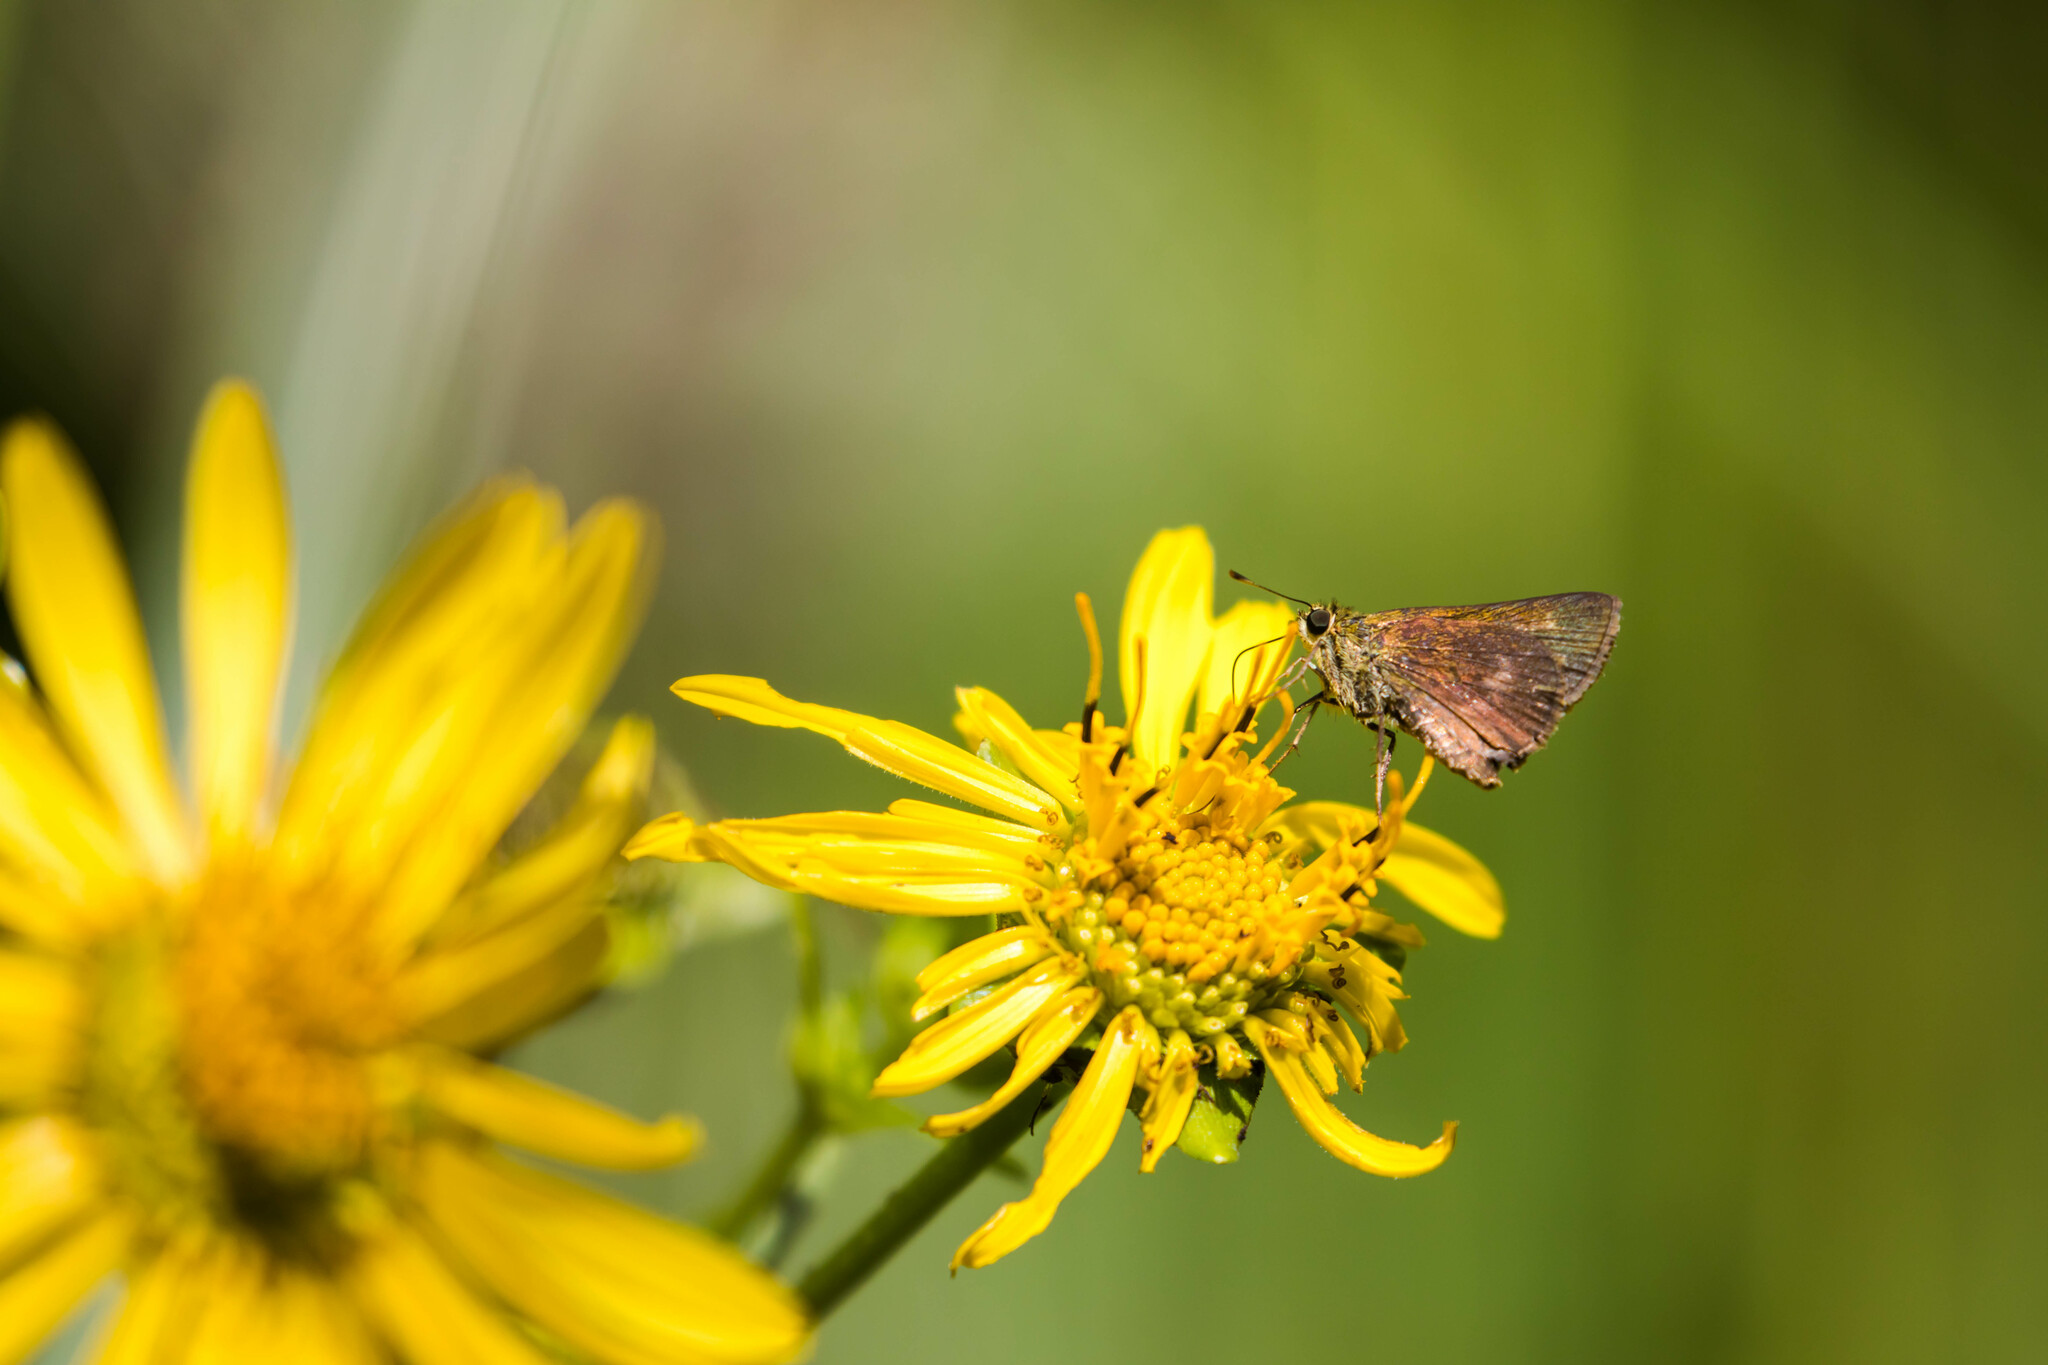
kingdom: Animalia
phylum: Arthropoda
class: Insecta
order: Lepidoptera
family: Hesperiidae
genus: Polites
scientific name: Polites egeremet
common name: Northern broken-dash
